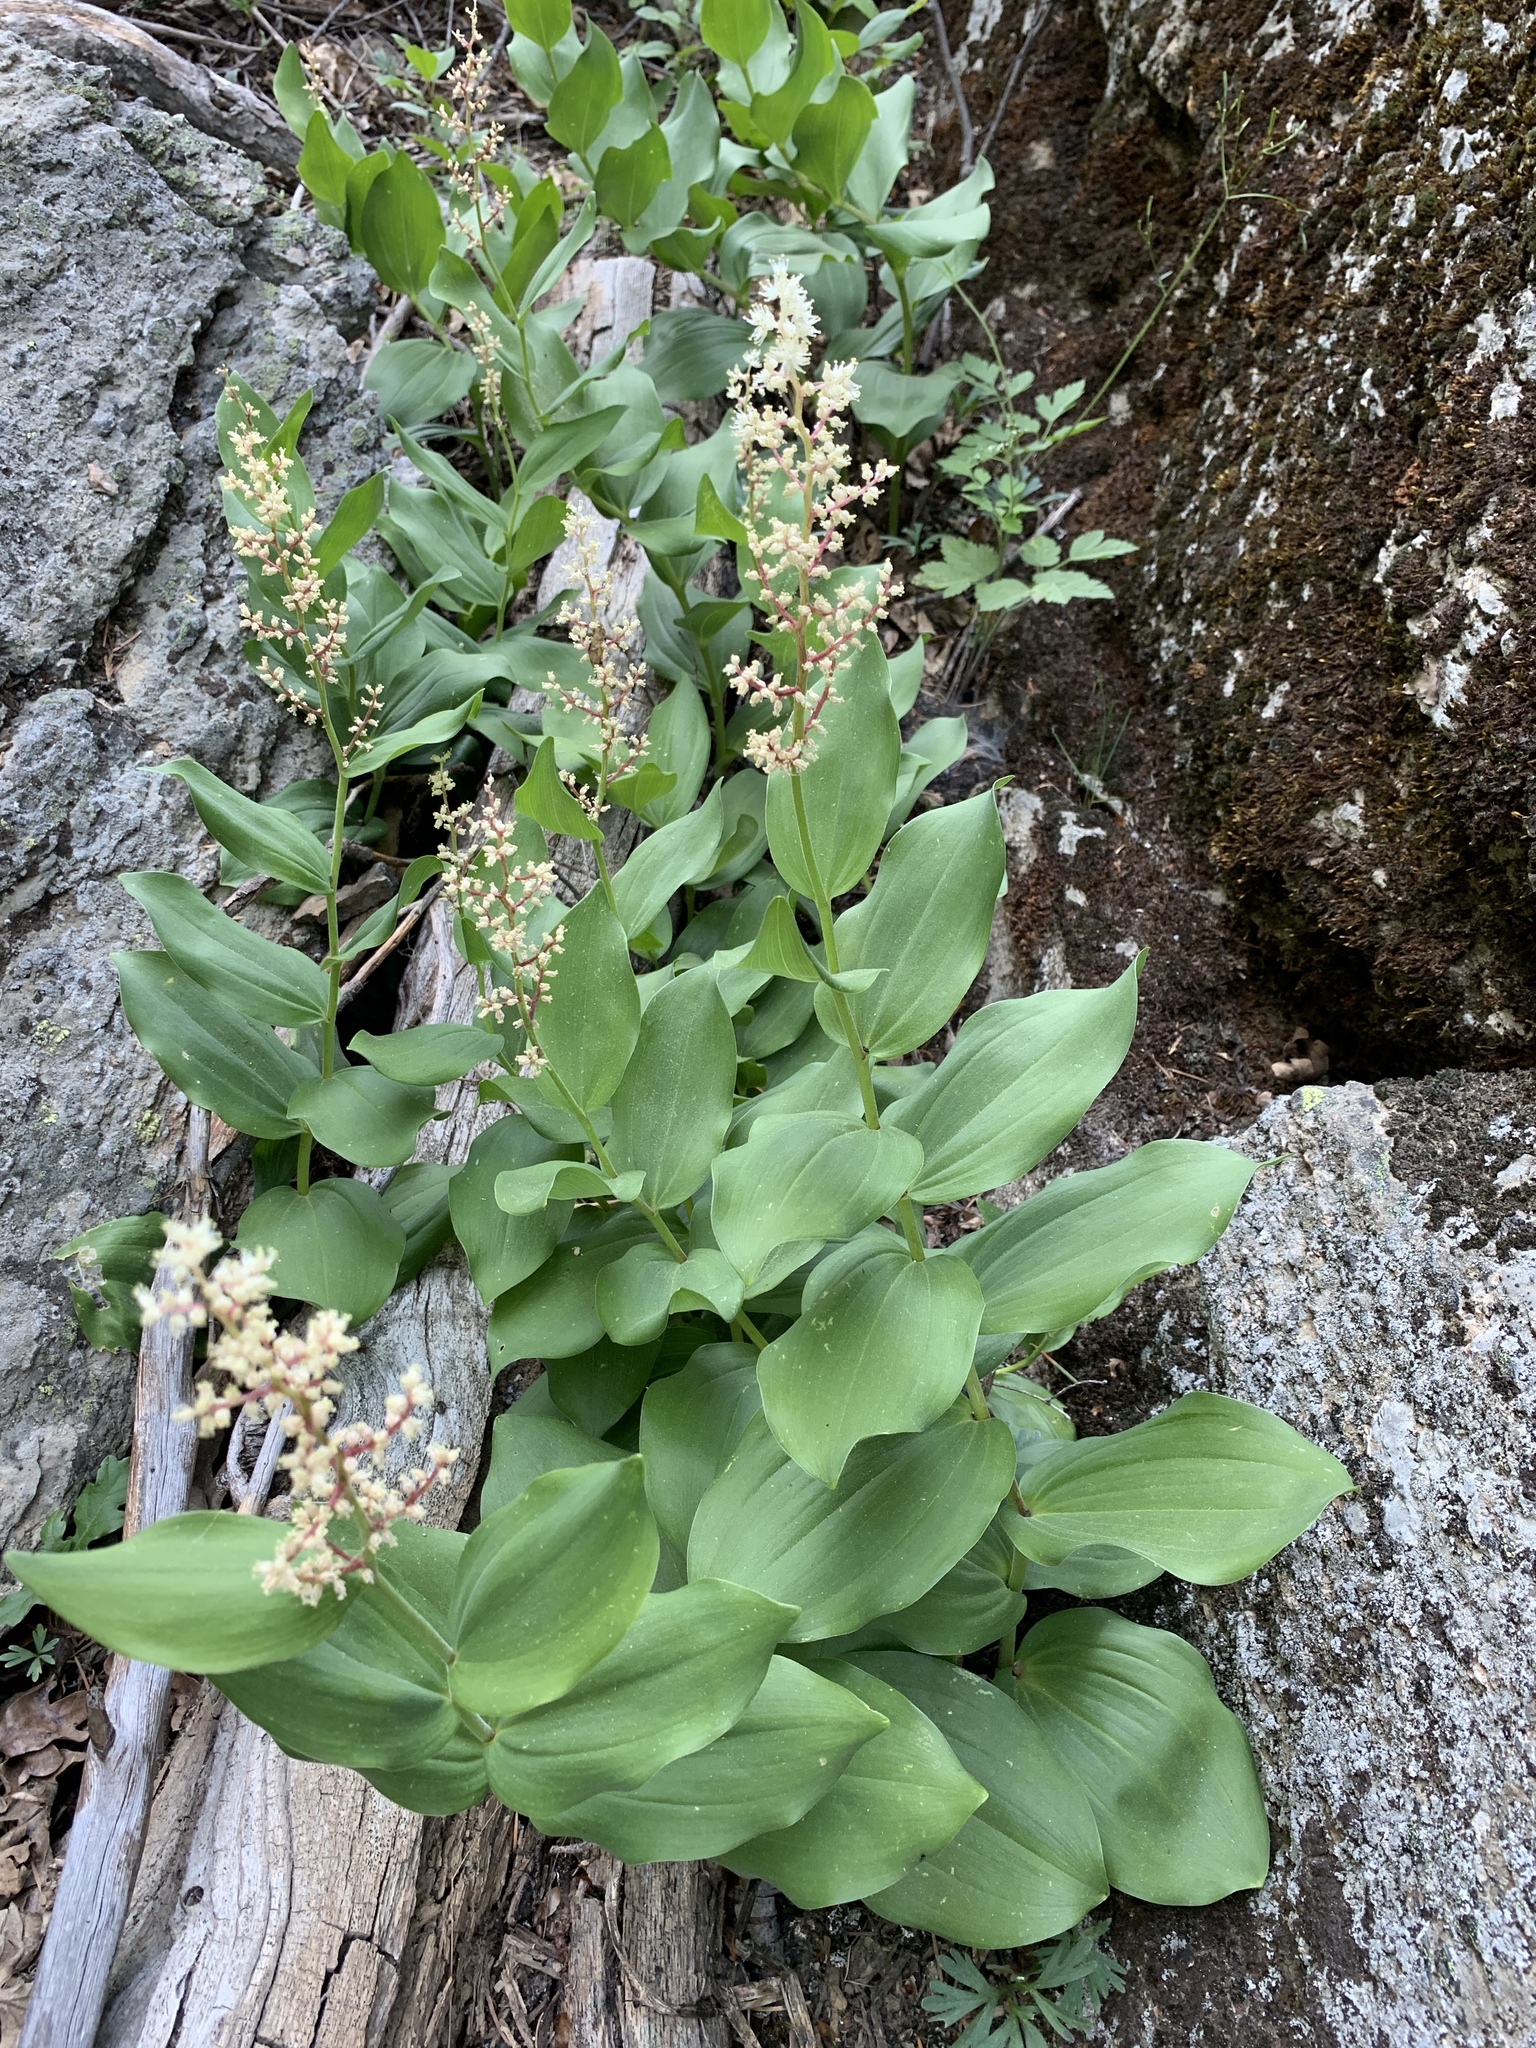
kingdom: Plantae
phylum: Tracheophyta
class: Liliopsida
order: Asparagales
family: Asparagaceae
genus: Maianthemum
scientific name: Maianthemum racemosum
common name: False spikenard
